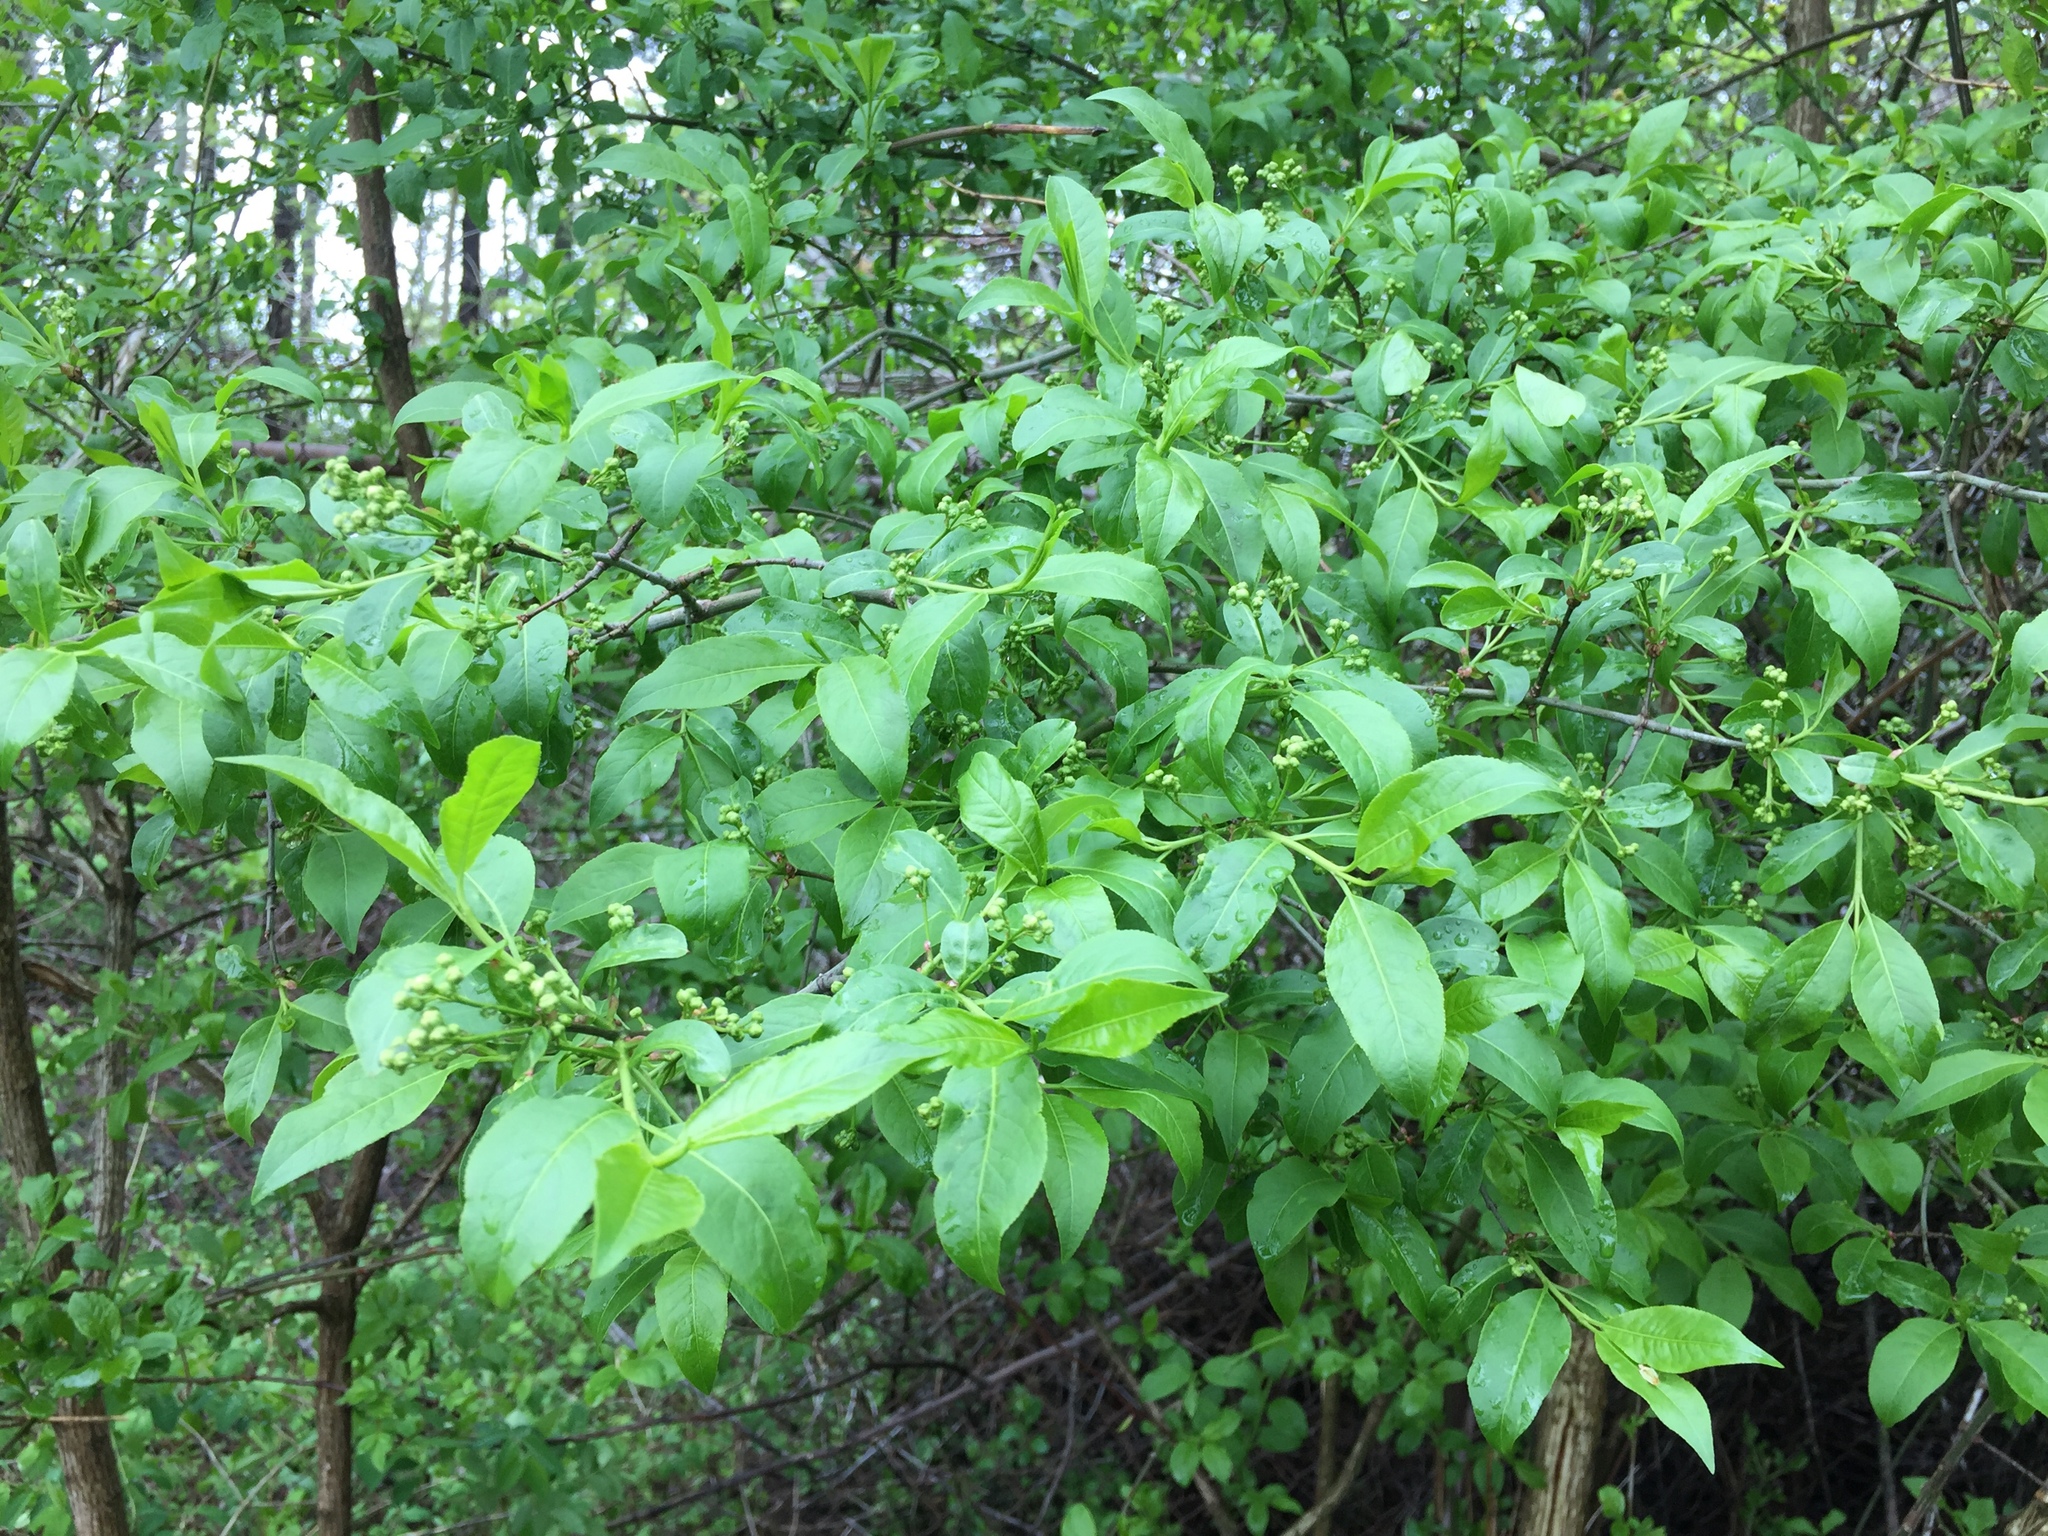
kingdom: Plantae
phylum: Tracheophyta
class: Magnoliopsida
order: Celastrales
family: Celastraceae
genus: Euonymus
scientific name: Euonymus europaeus
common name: Spindle
